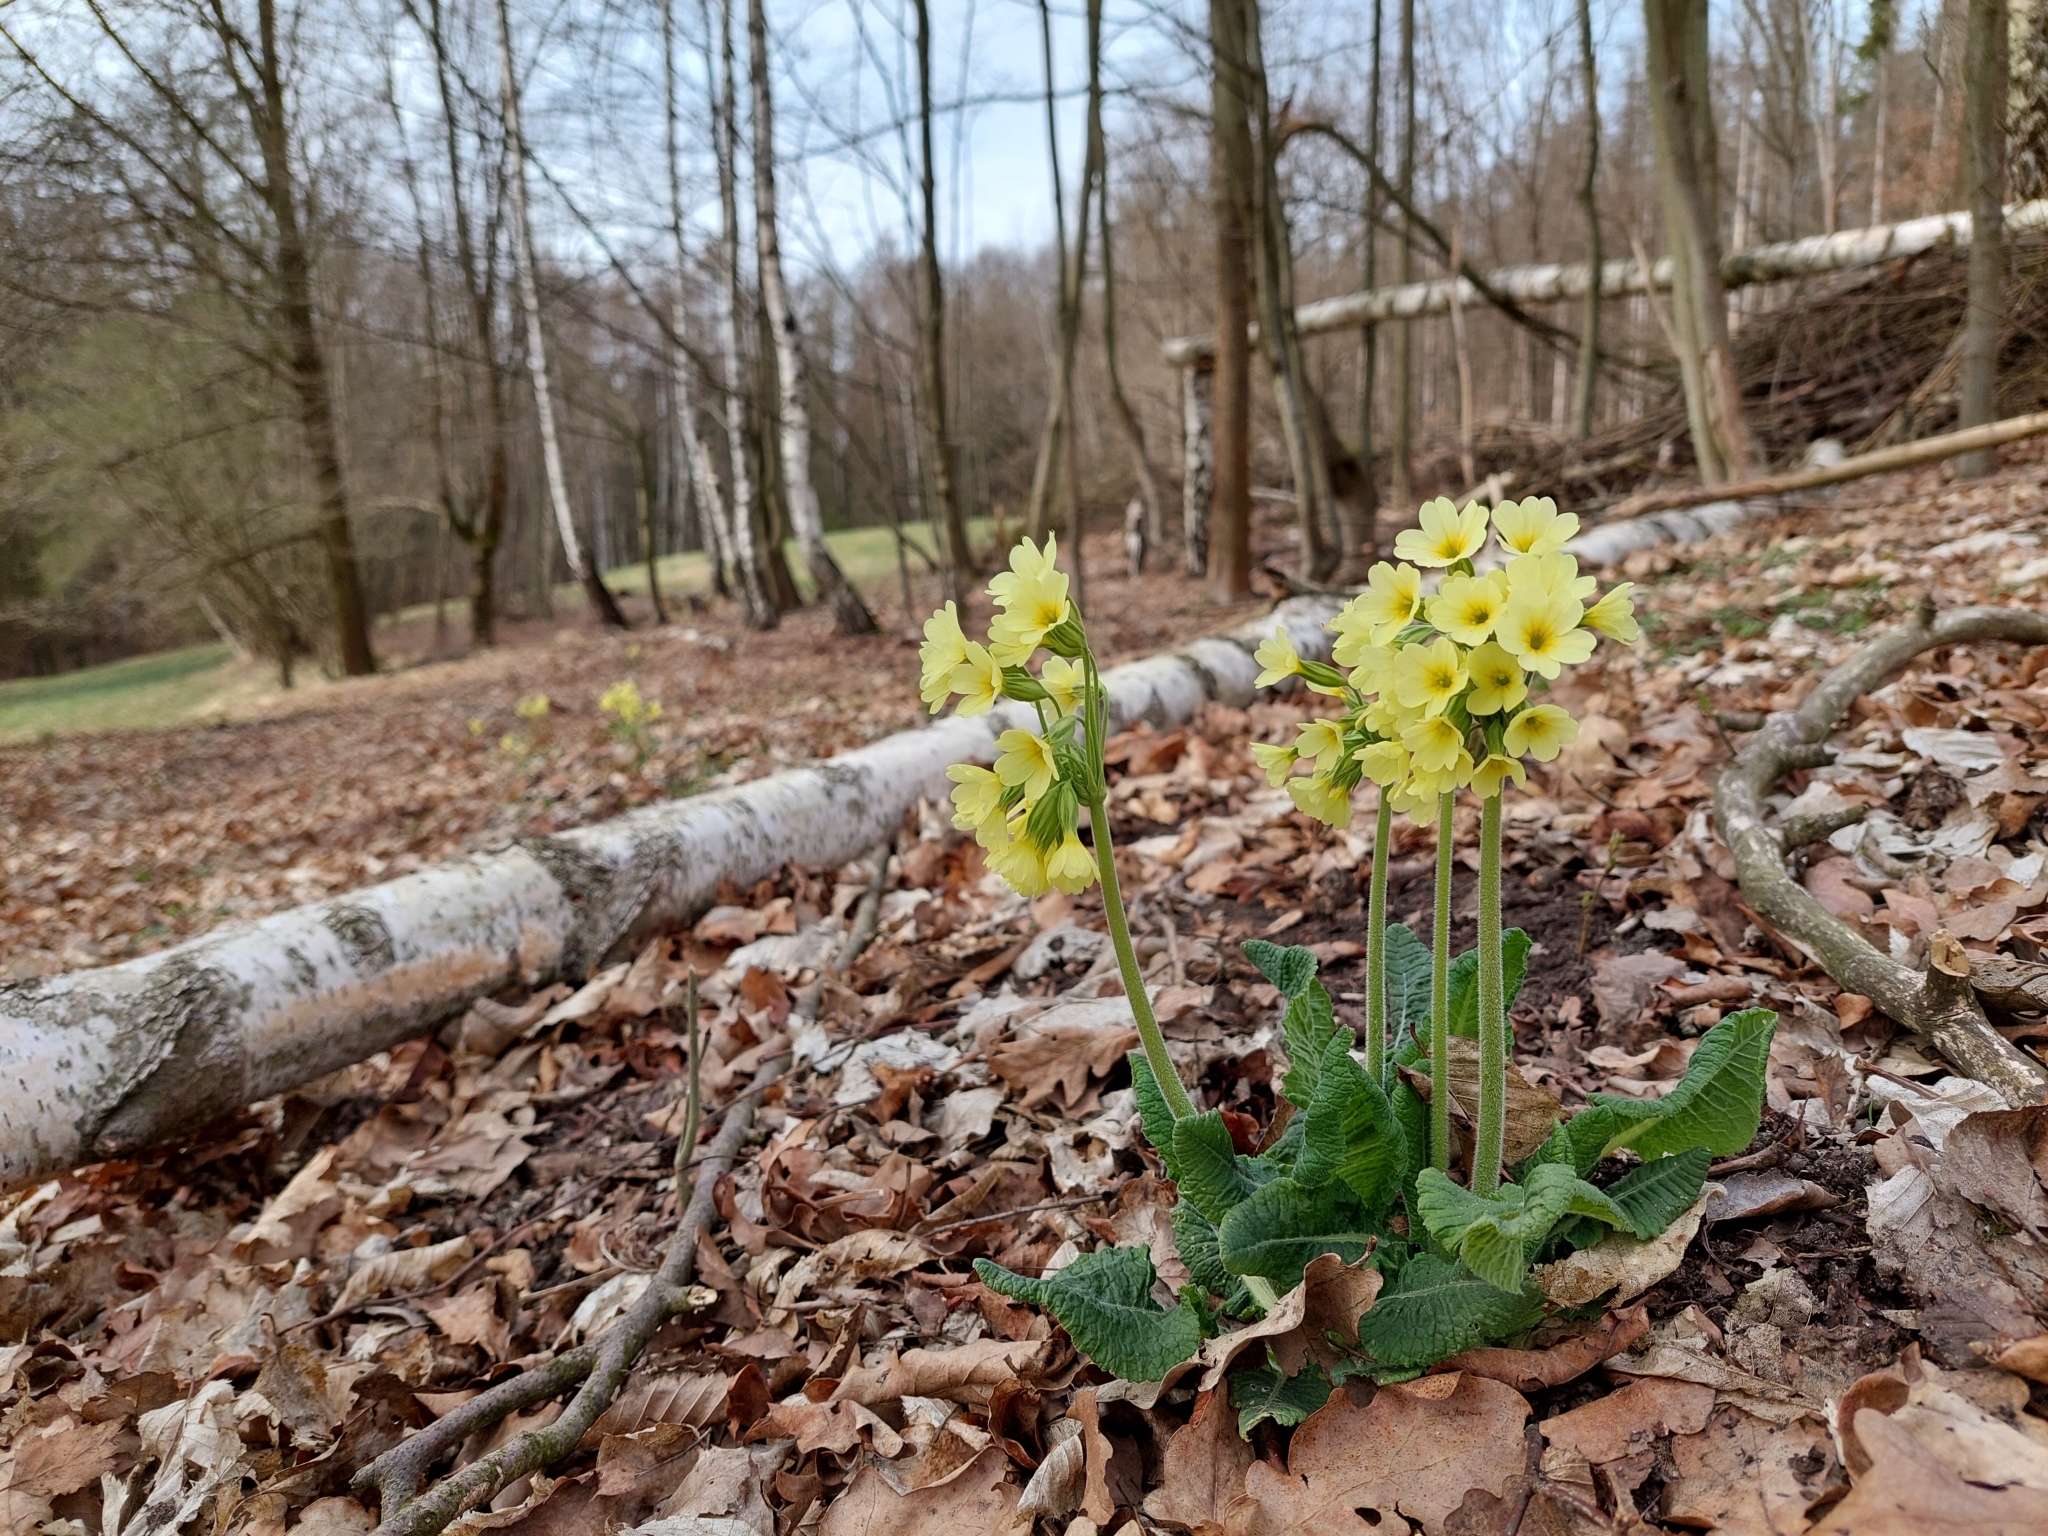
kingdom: Plantae
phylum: Tracheophyta
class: Magnoliopsida
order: Ericales
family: Primulaceae
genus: Primula
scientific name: Primula elatior
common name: Oxlip
